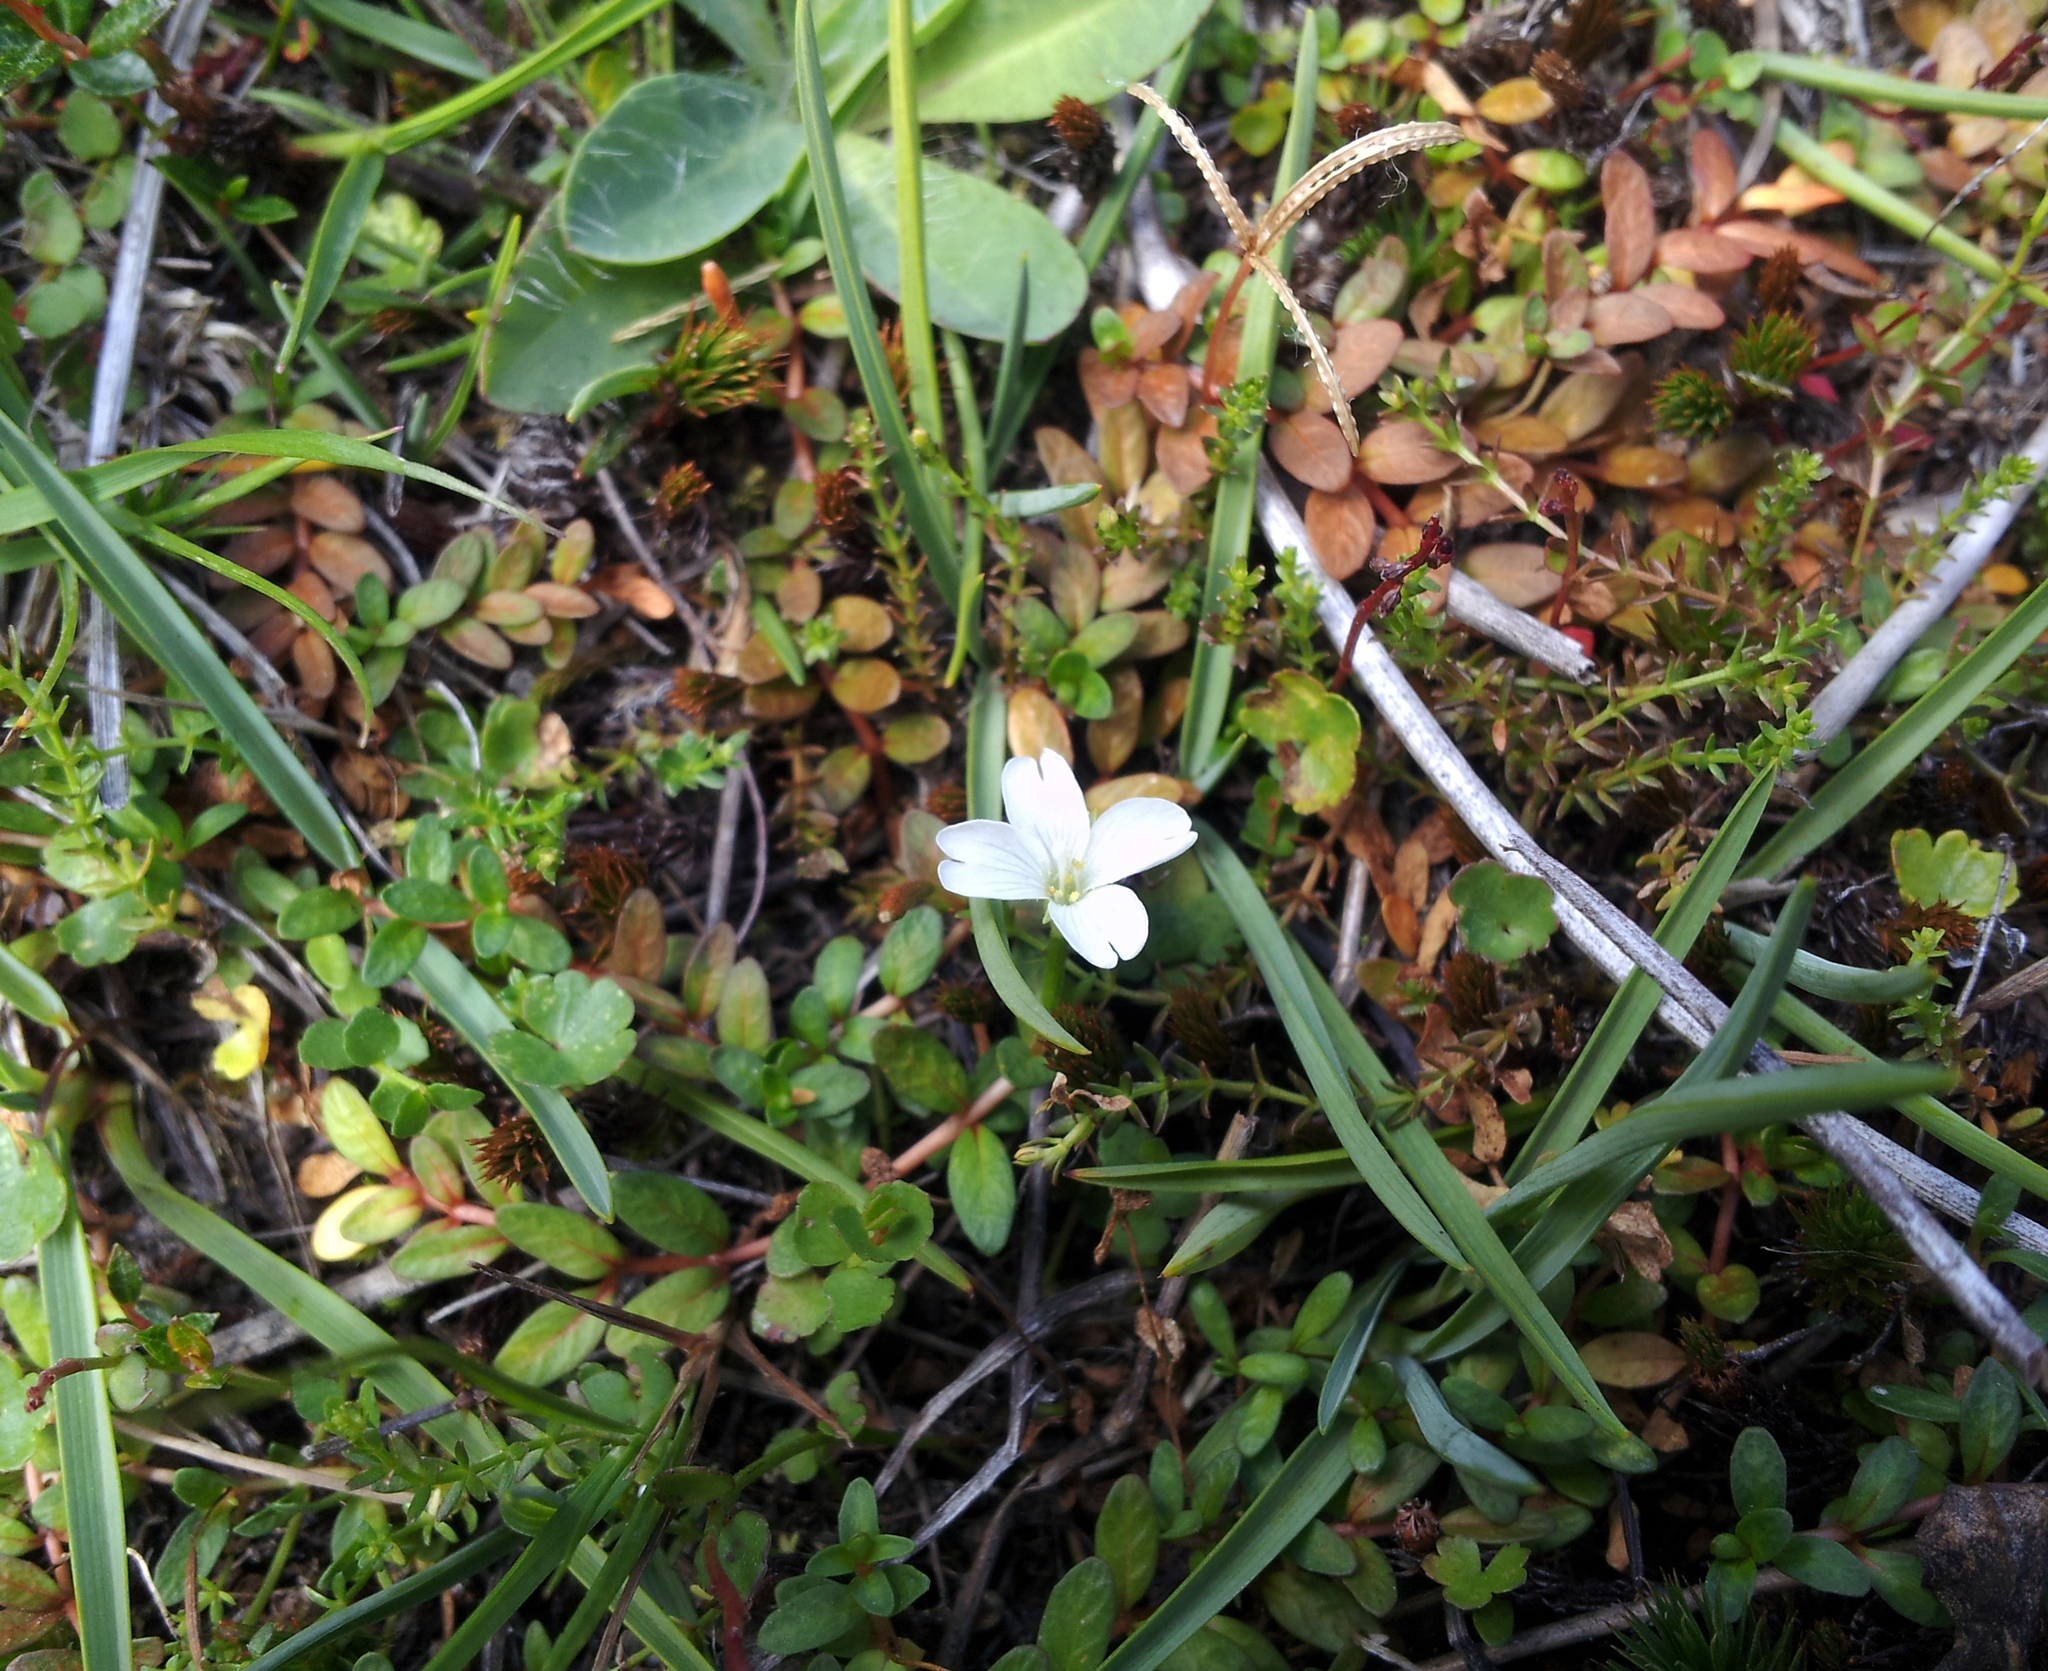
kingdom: Plantae
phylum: Tracheophyta
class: Magnoliopsida
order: Myrtales
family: Onagraceae
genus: Epilobium
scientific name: Epilobium angustum
